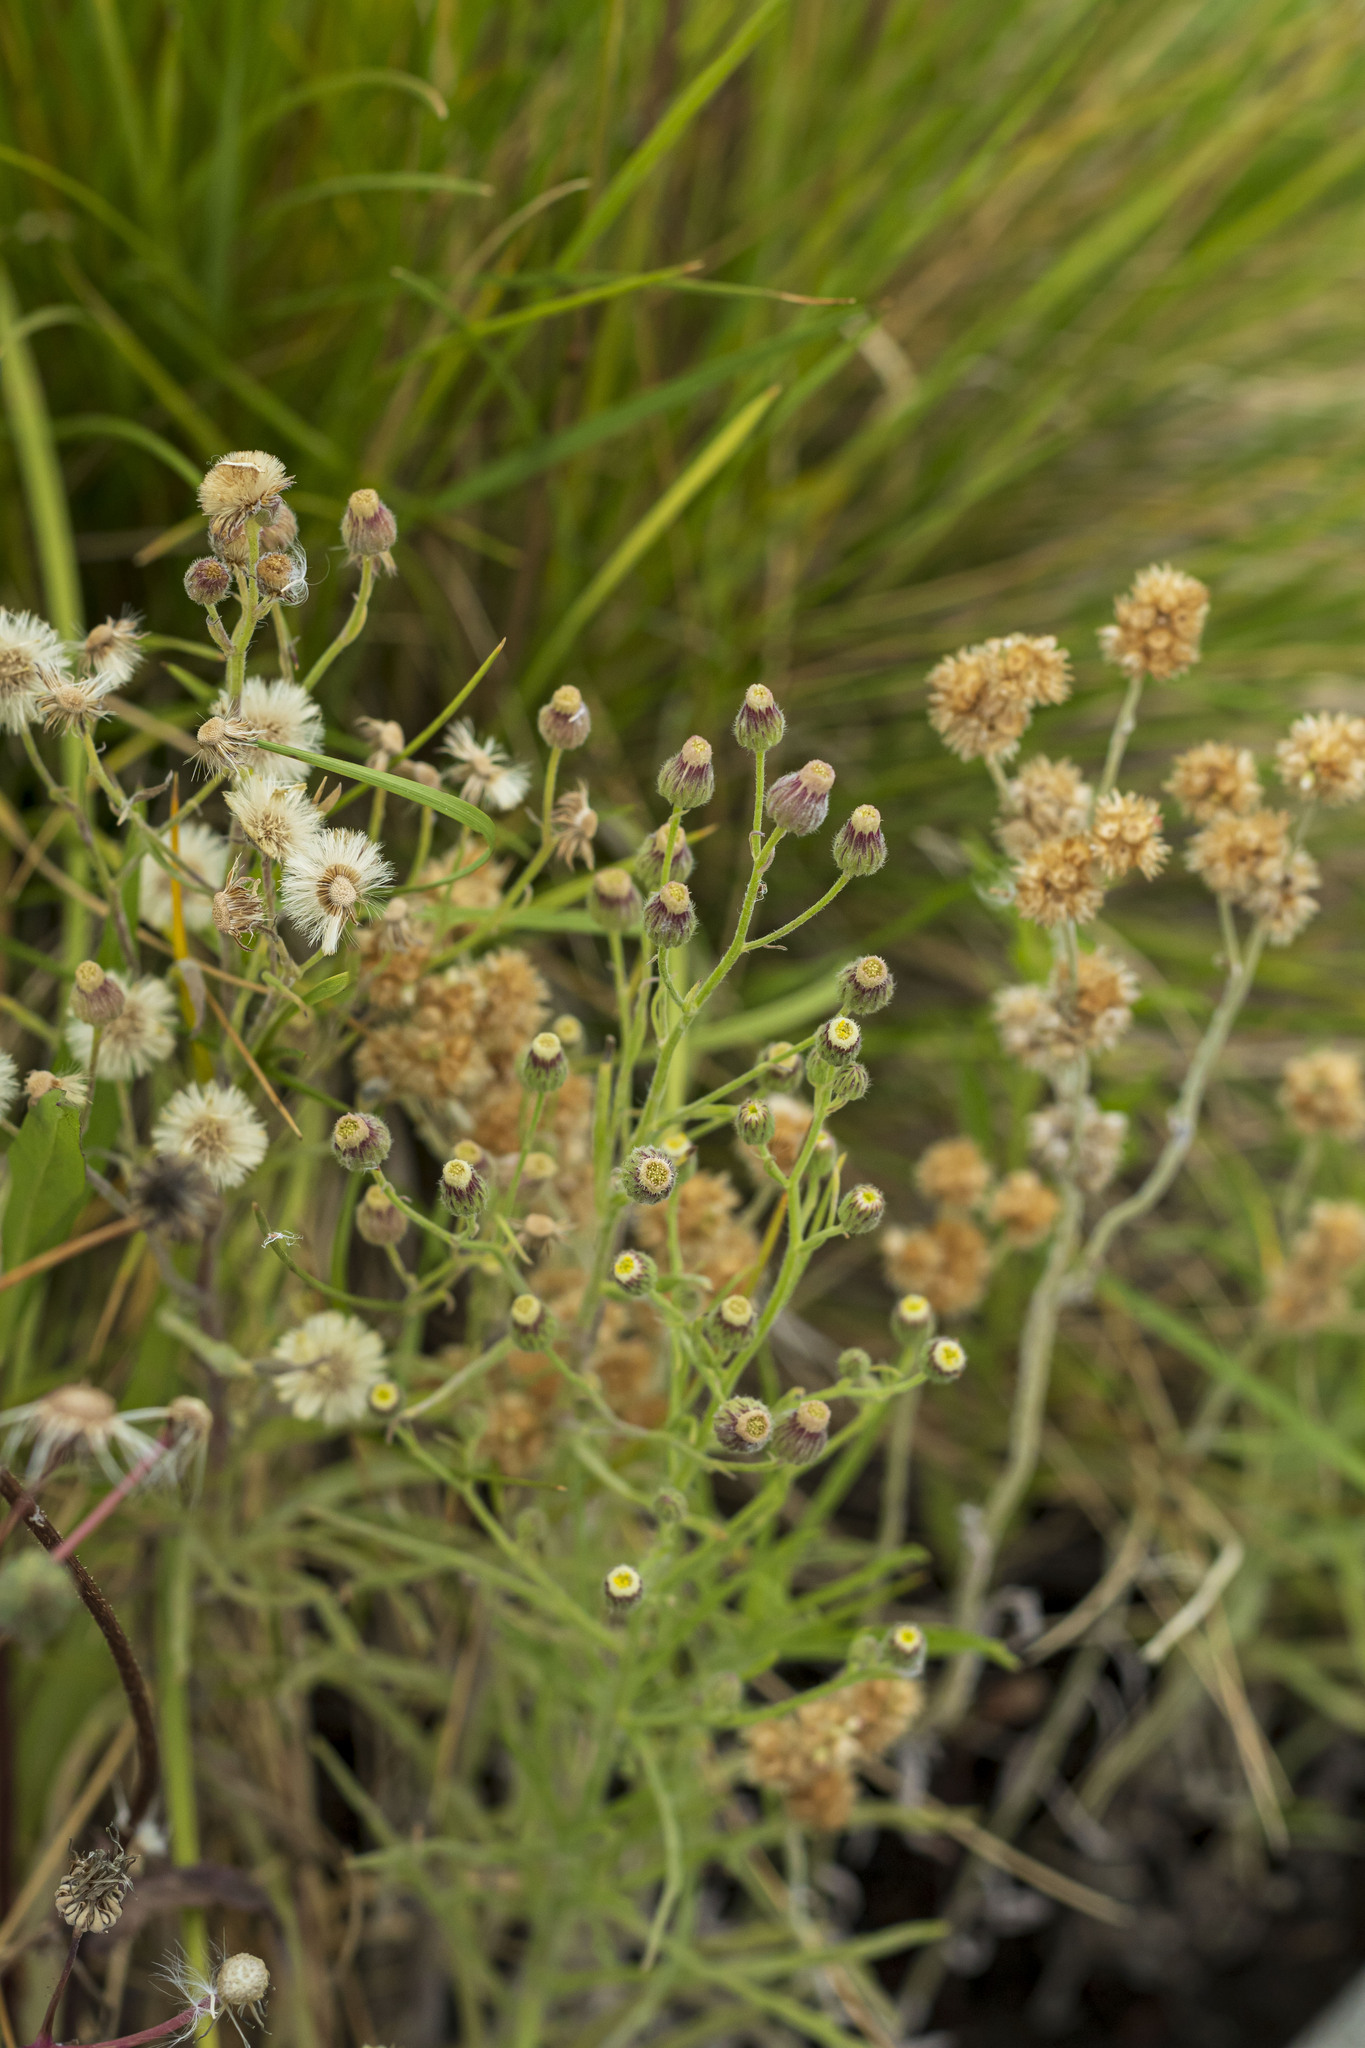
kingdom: Plantae
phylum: Tracheophyta
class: Magnoliopsida
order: Asterales
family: Asteraceae
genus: Erigeron
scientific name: Erigeron bonariensis
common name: Argentine fleabane
